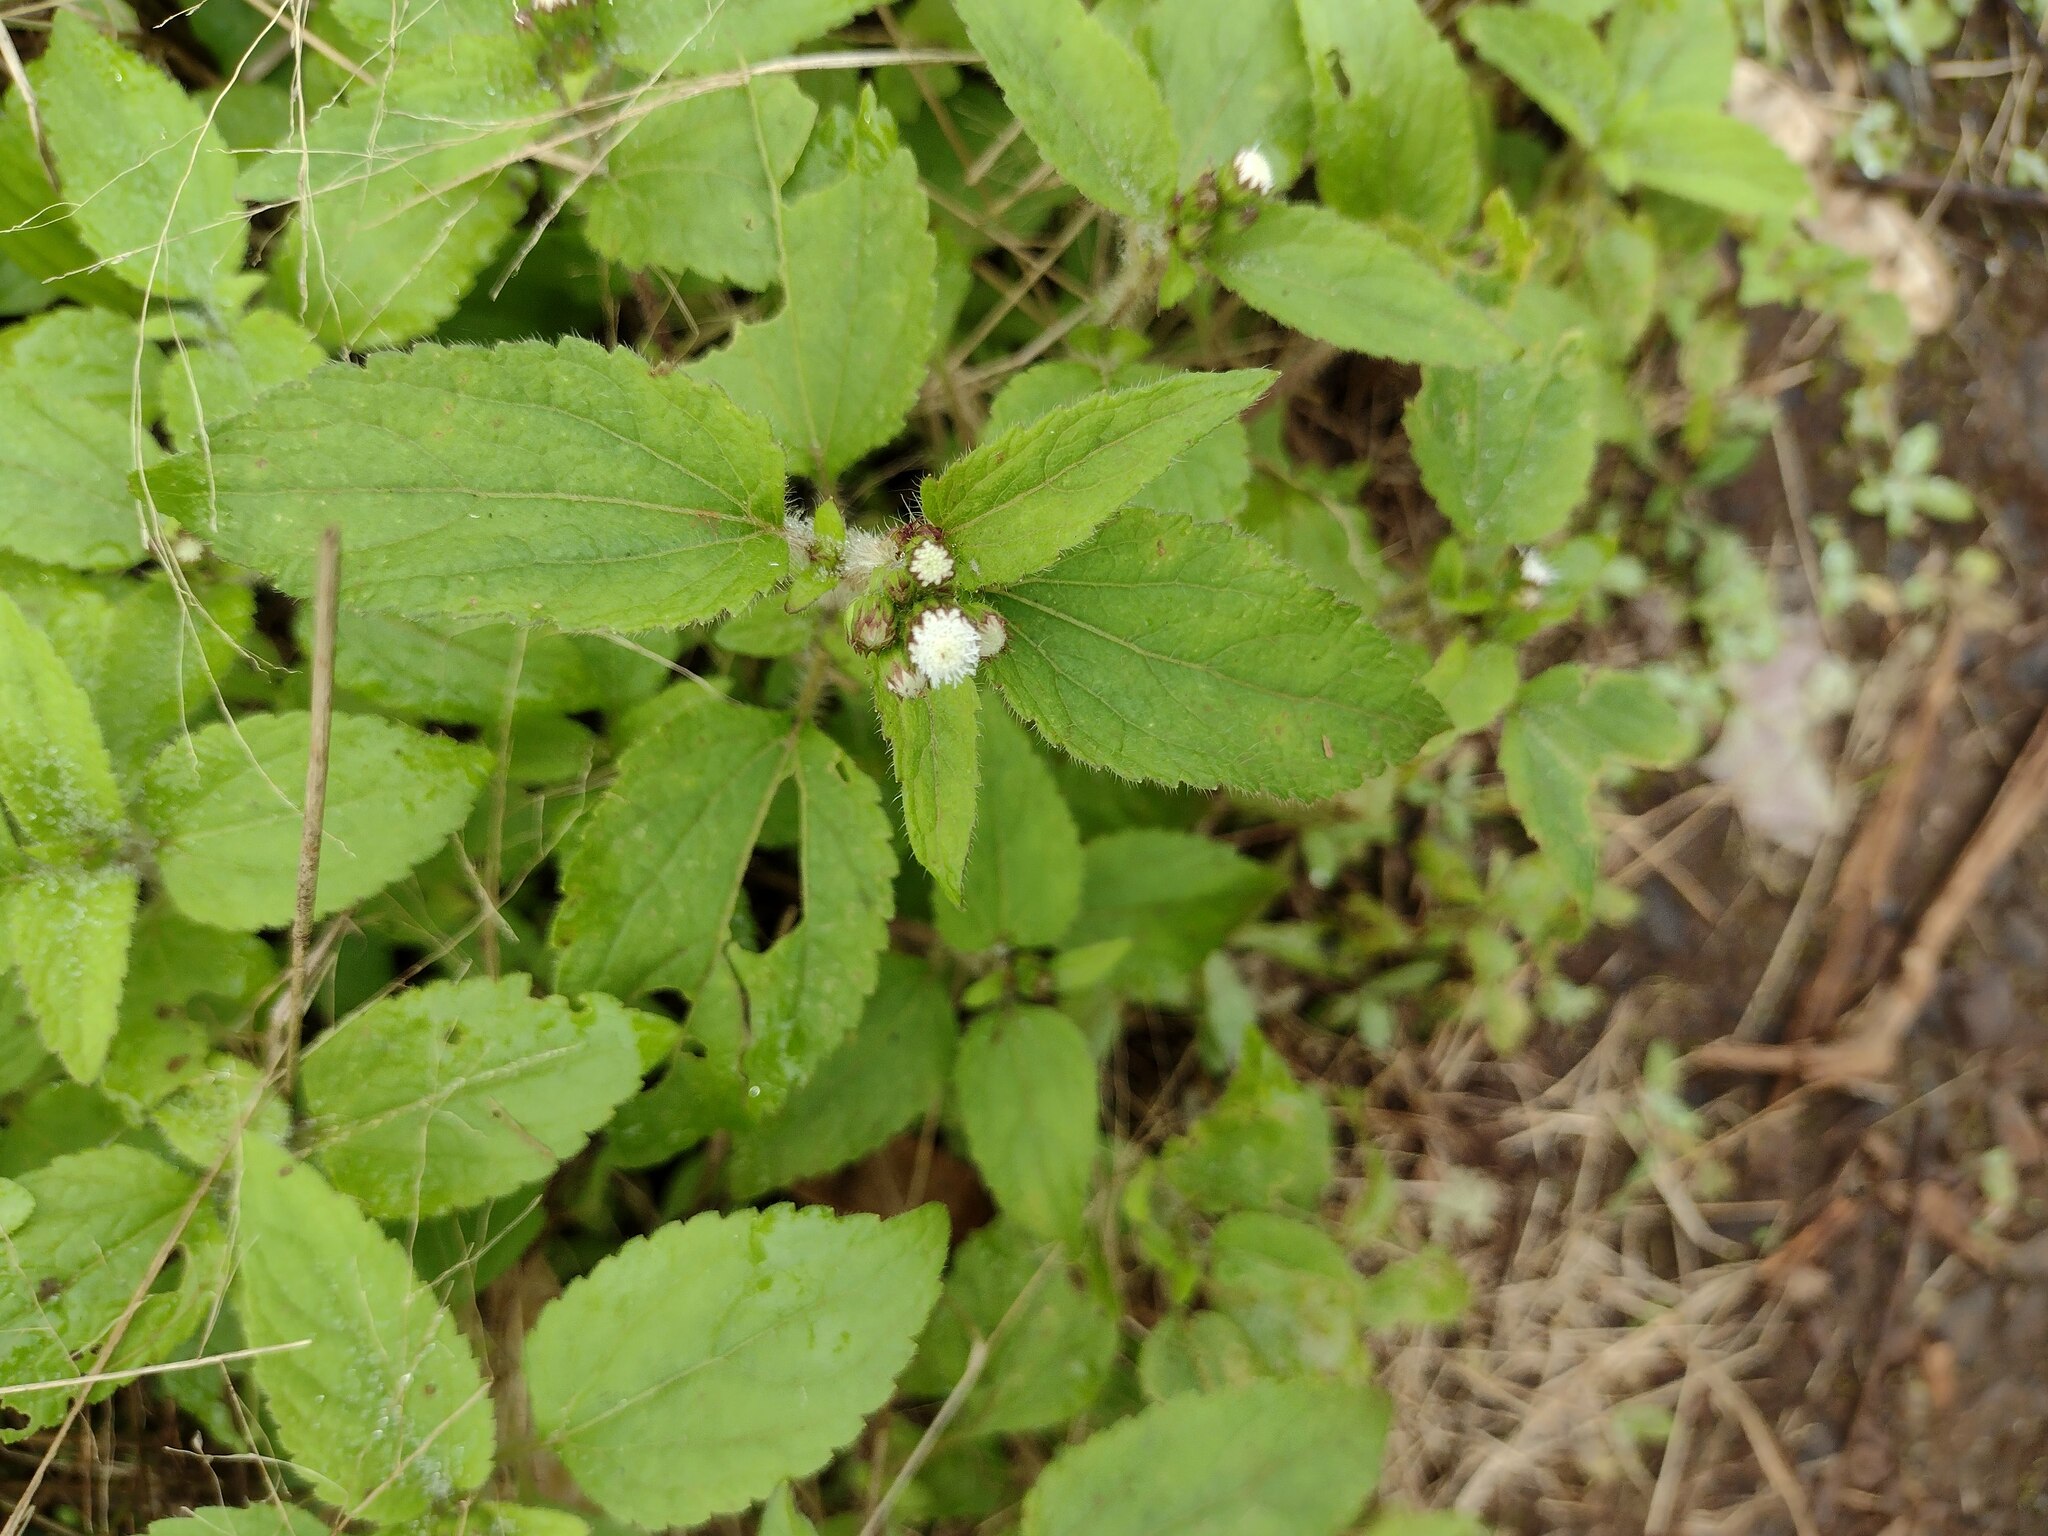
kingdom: Plantae
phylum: Tracheophyta
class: Magnoliopsida
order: Asterales
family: Asteraceae
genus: Ageratum
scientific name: Ageratum conyzoides
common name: Tropical whiteweed
